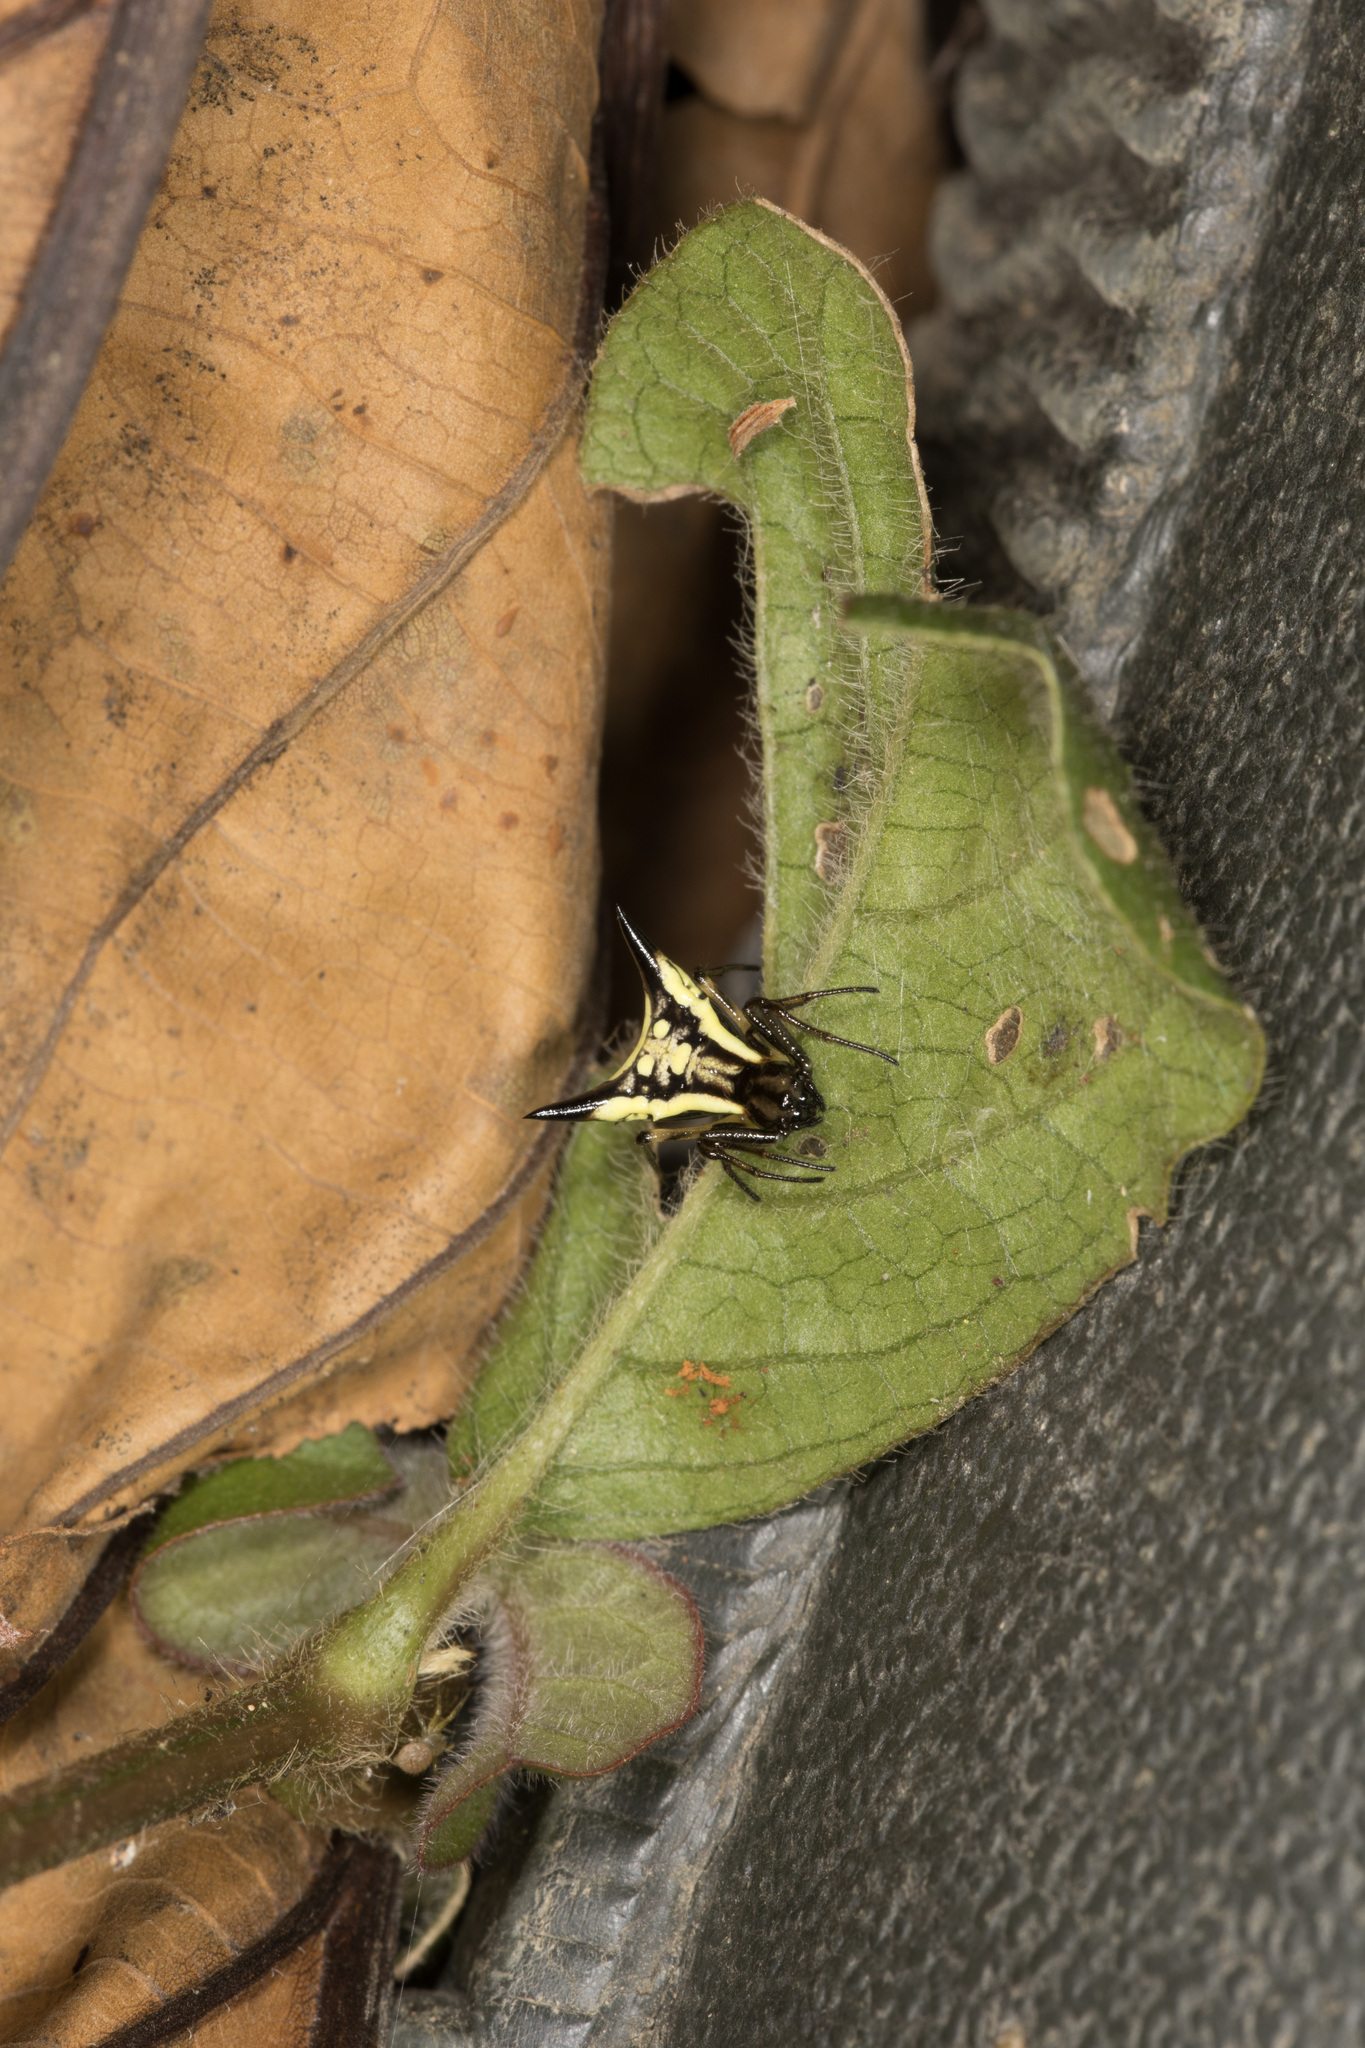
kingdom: Animalia
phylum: Arthropoda
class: Arachnida
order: Araneae
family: Araneidae
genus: Micrathena
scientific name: Micrathena triangularispinosa
